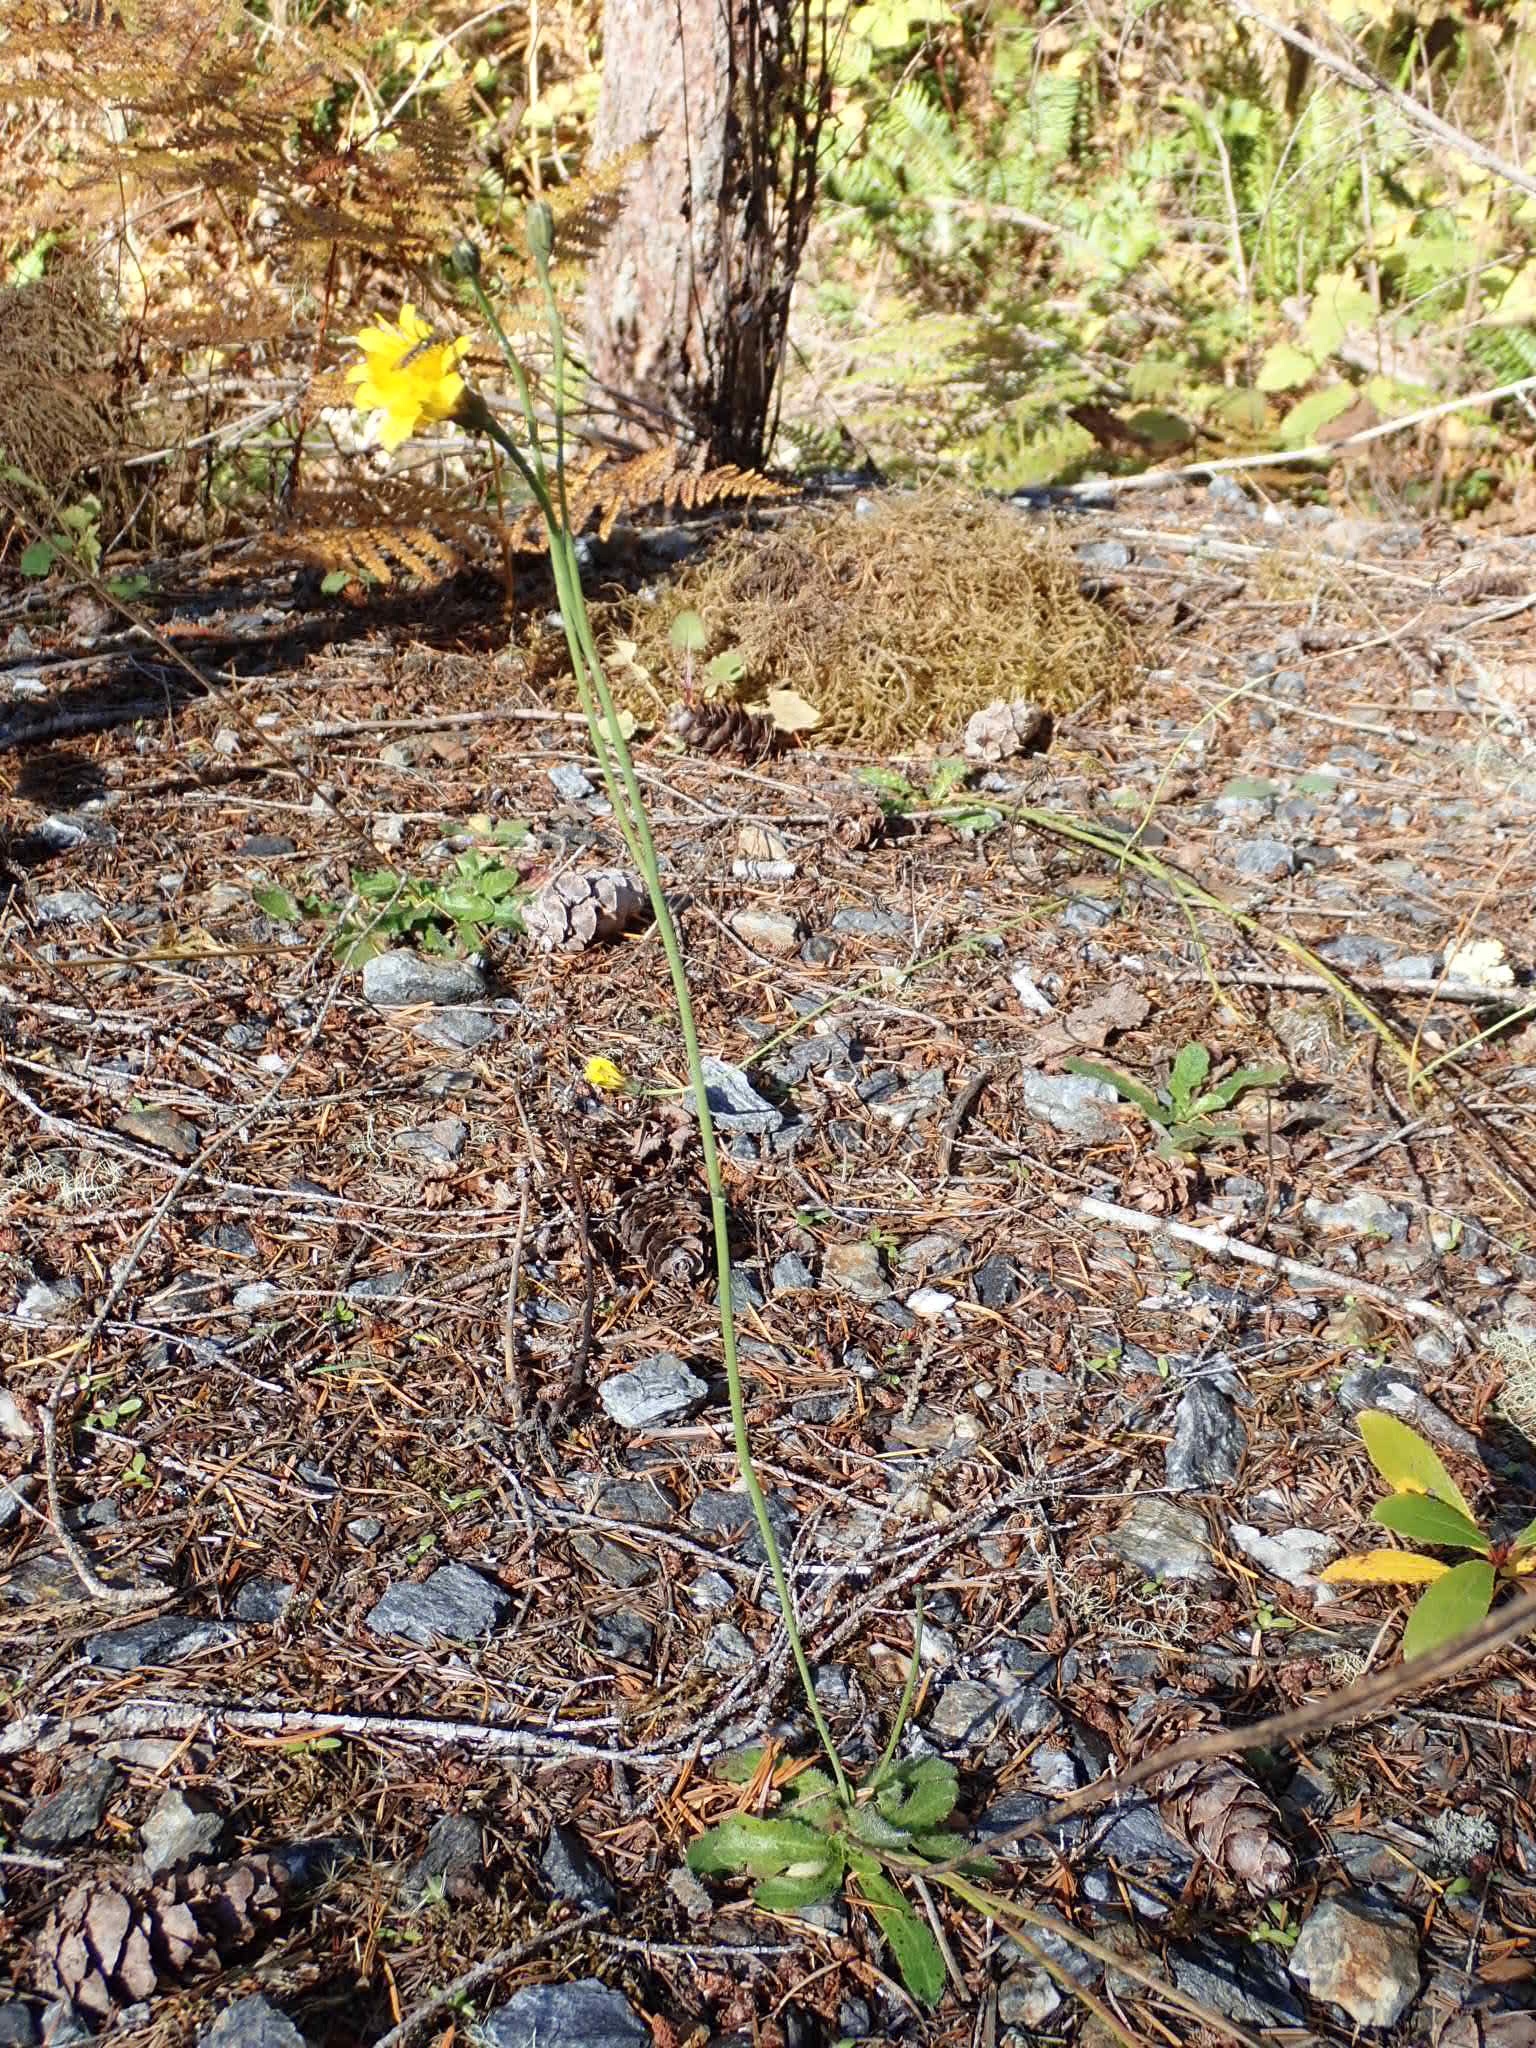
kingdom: Plantae
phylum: Tracheophyta
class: Magnoliopsida
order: Asterales
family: Asteraceae
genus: Hypochaeris
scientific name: Hypochaeris radicata
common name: Flatweed
